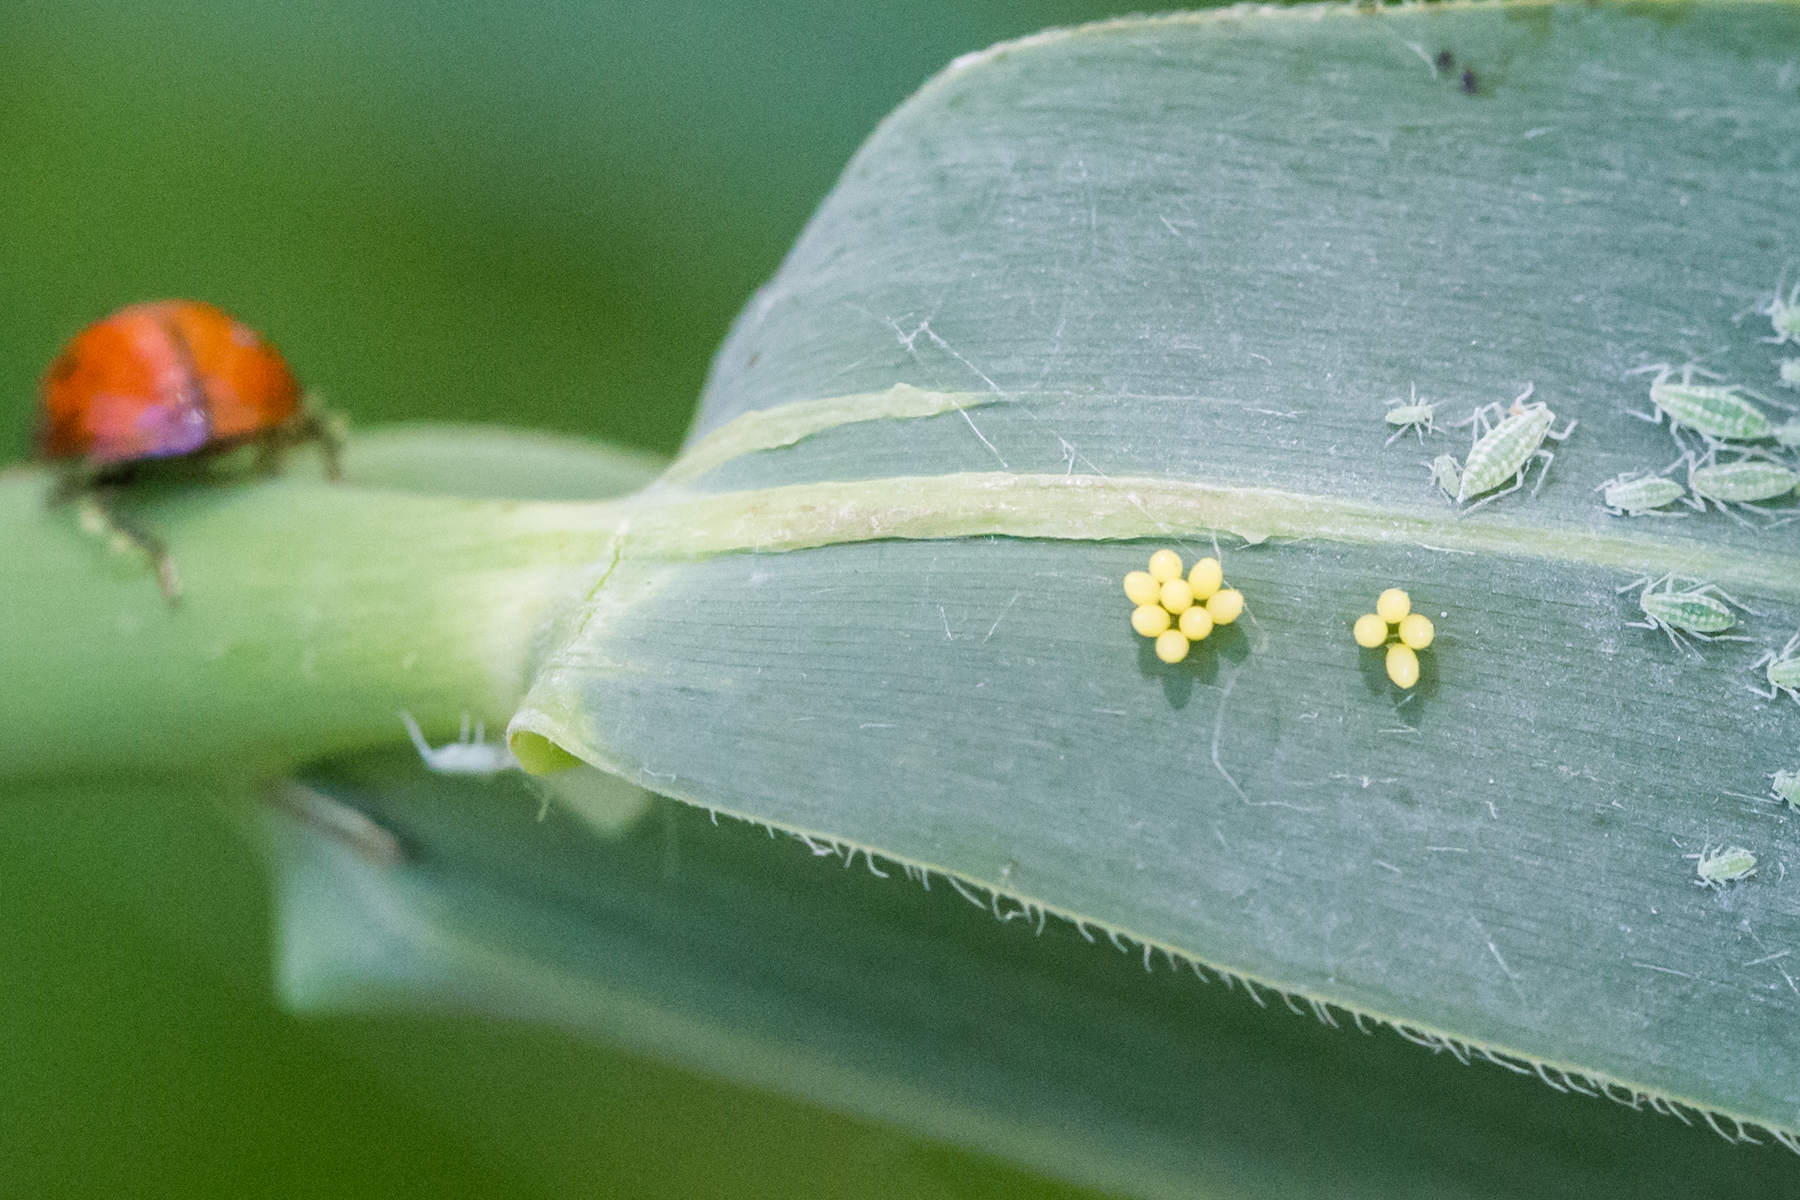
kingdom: Animalia
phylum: Arthropoda
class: Insecta
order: Coleoptera
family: Coccinellidae
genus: Harmonia
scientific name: Harmonia axyridis
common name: Harlequin ladybird
